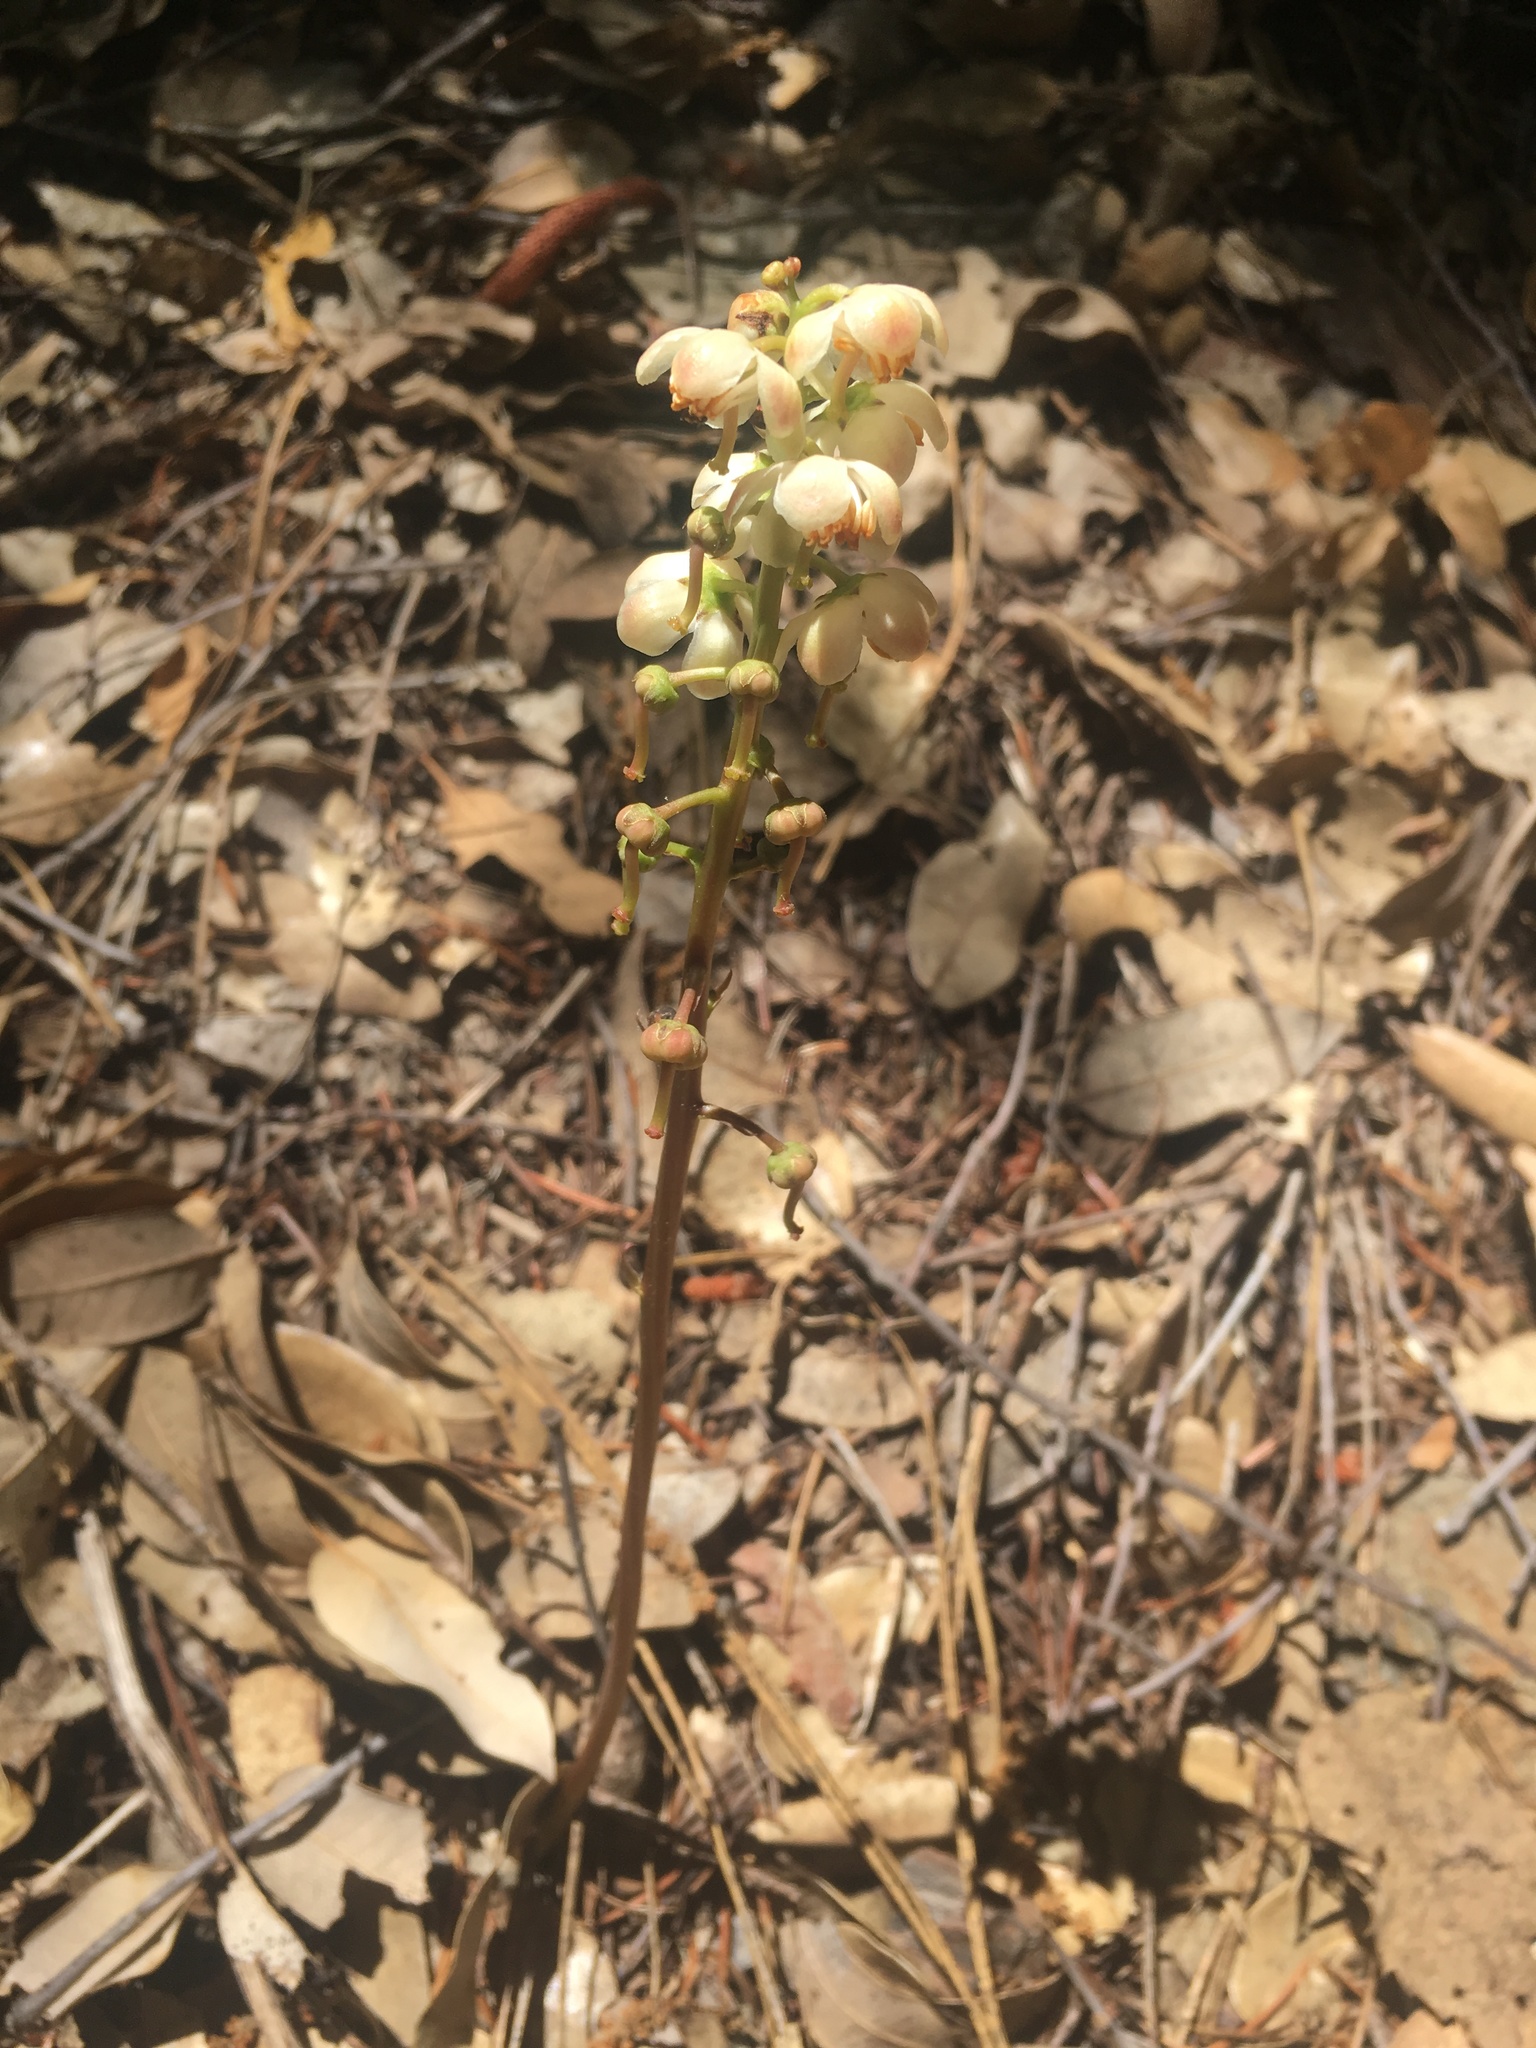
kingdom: Plantae
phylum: Tracheophyta
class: Magnoliopsida
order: Ericales
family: Ericaceae
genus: Pyrola
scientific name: Pyrola aphylla
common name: Leafless wintergreen
